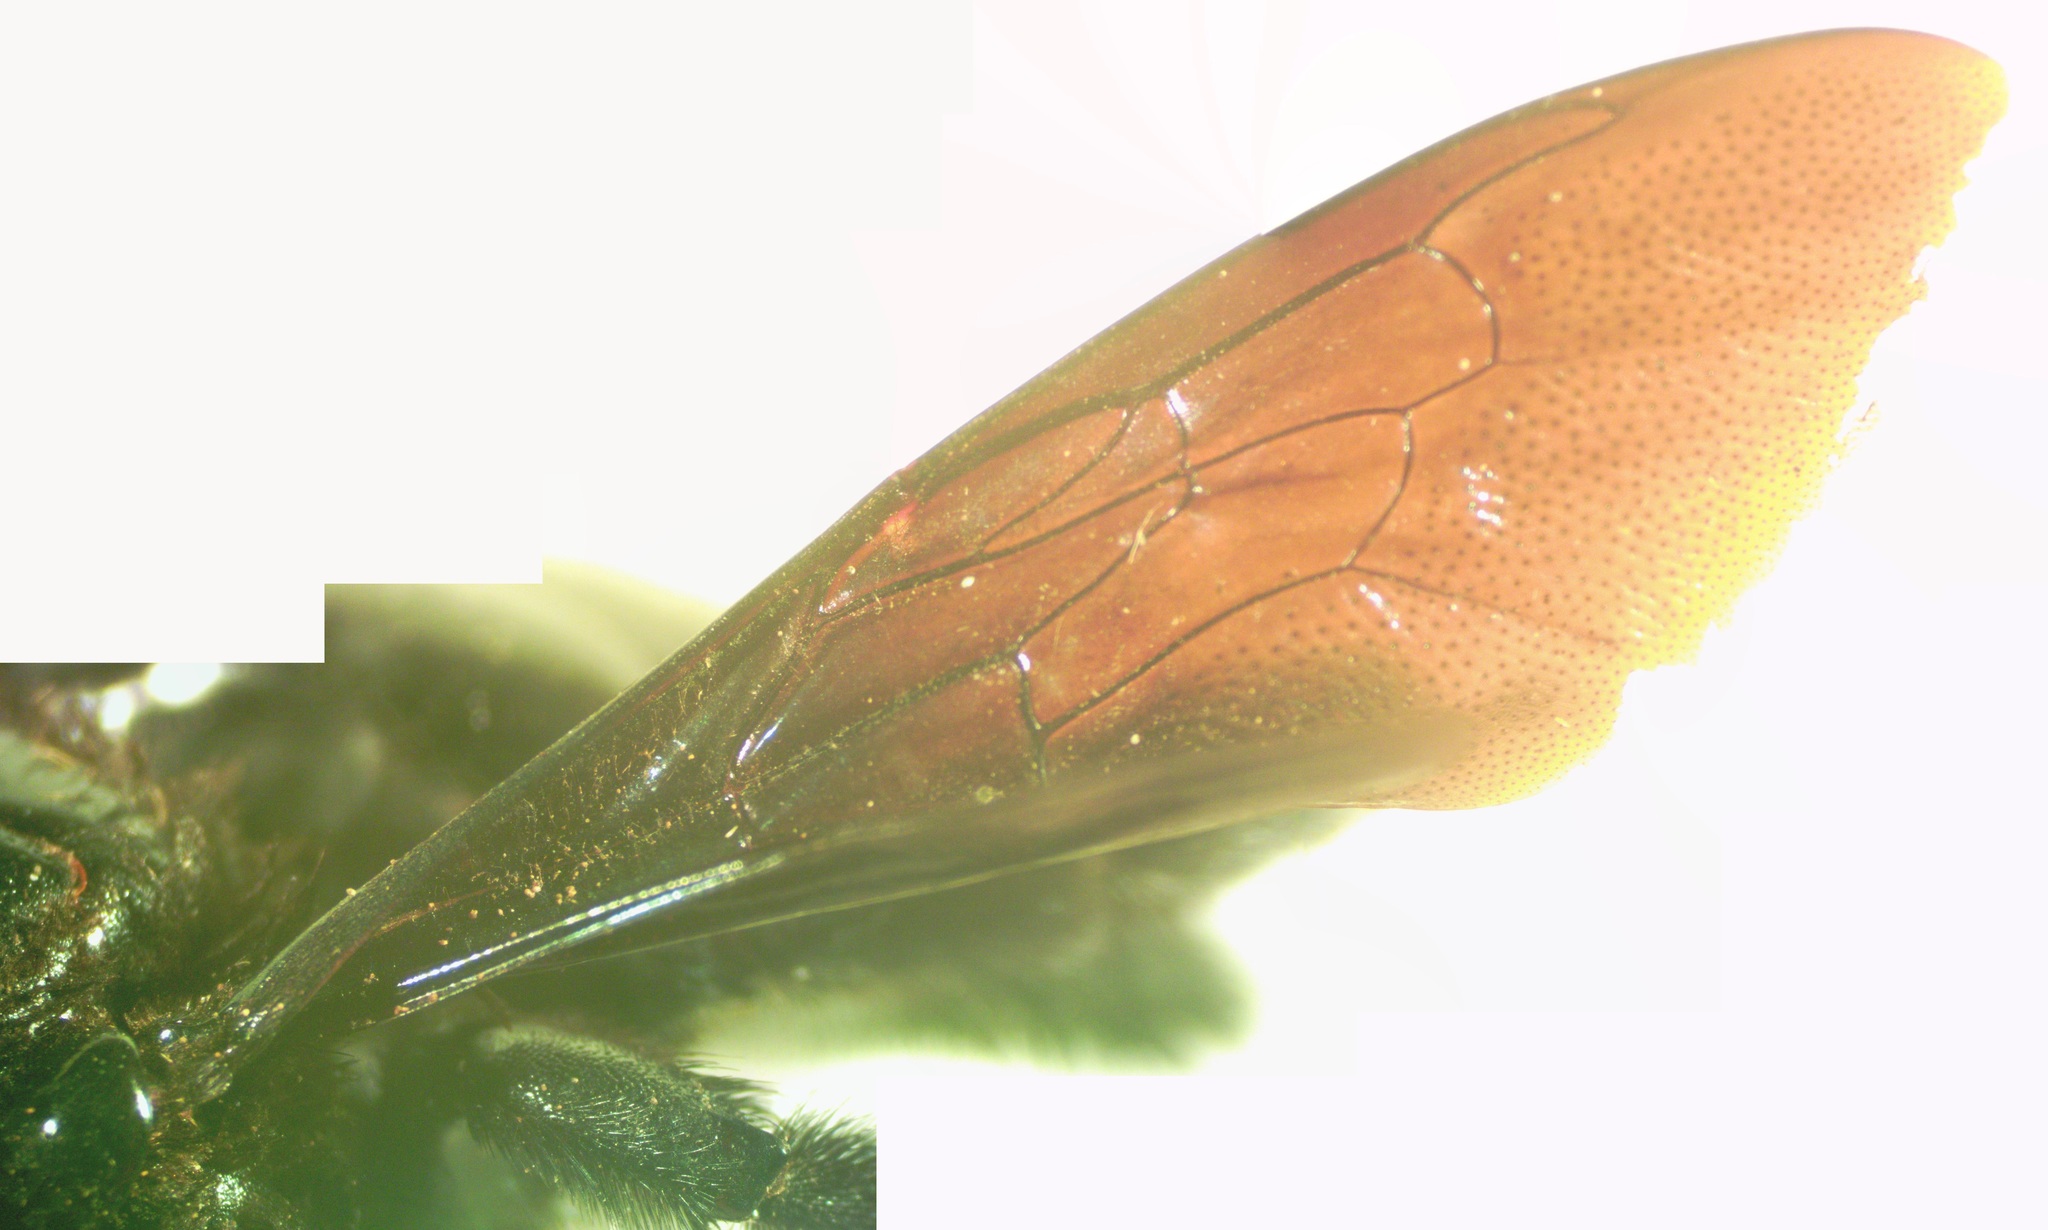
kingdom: Animalia
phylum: Arthropoda
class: Insecta
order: Hymenoptera
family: Apidae
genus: Xylocopa
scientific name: Xylocopa fimbriata
